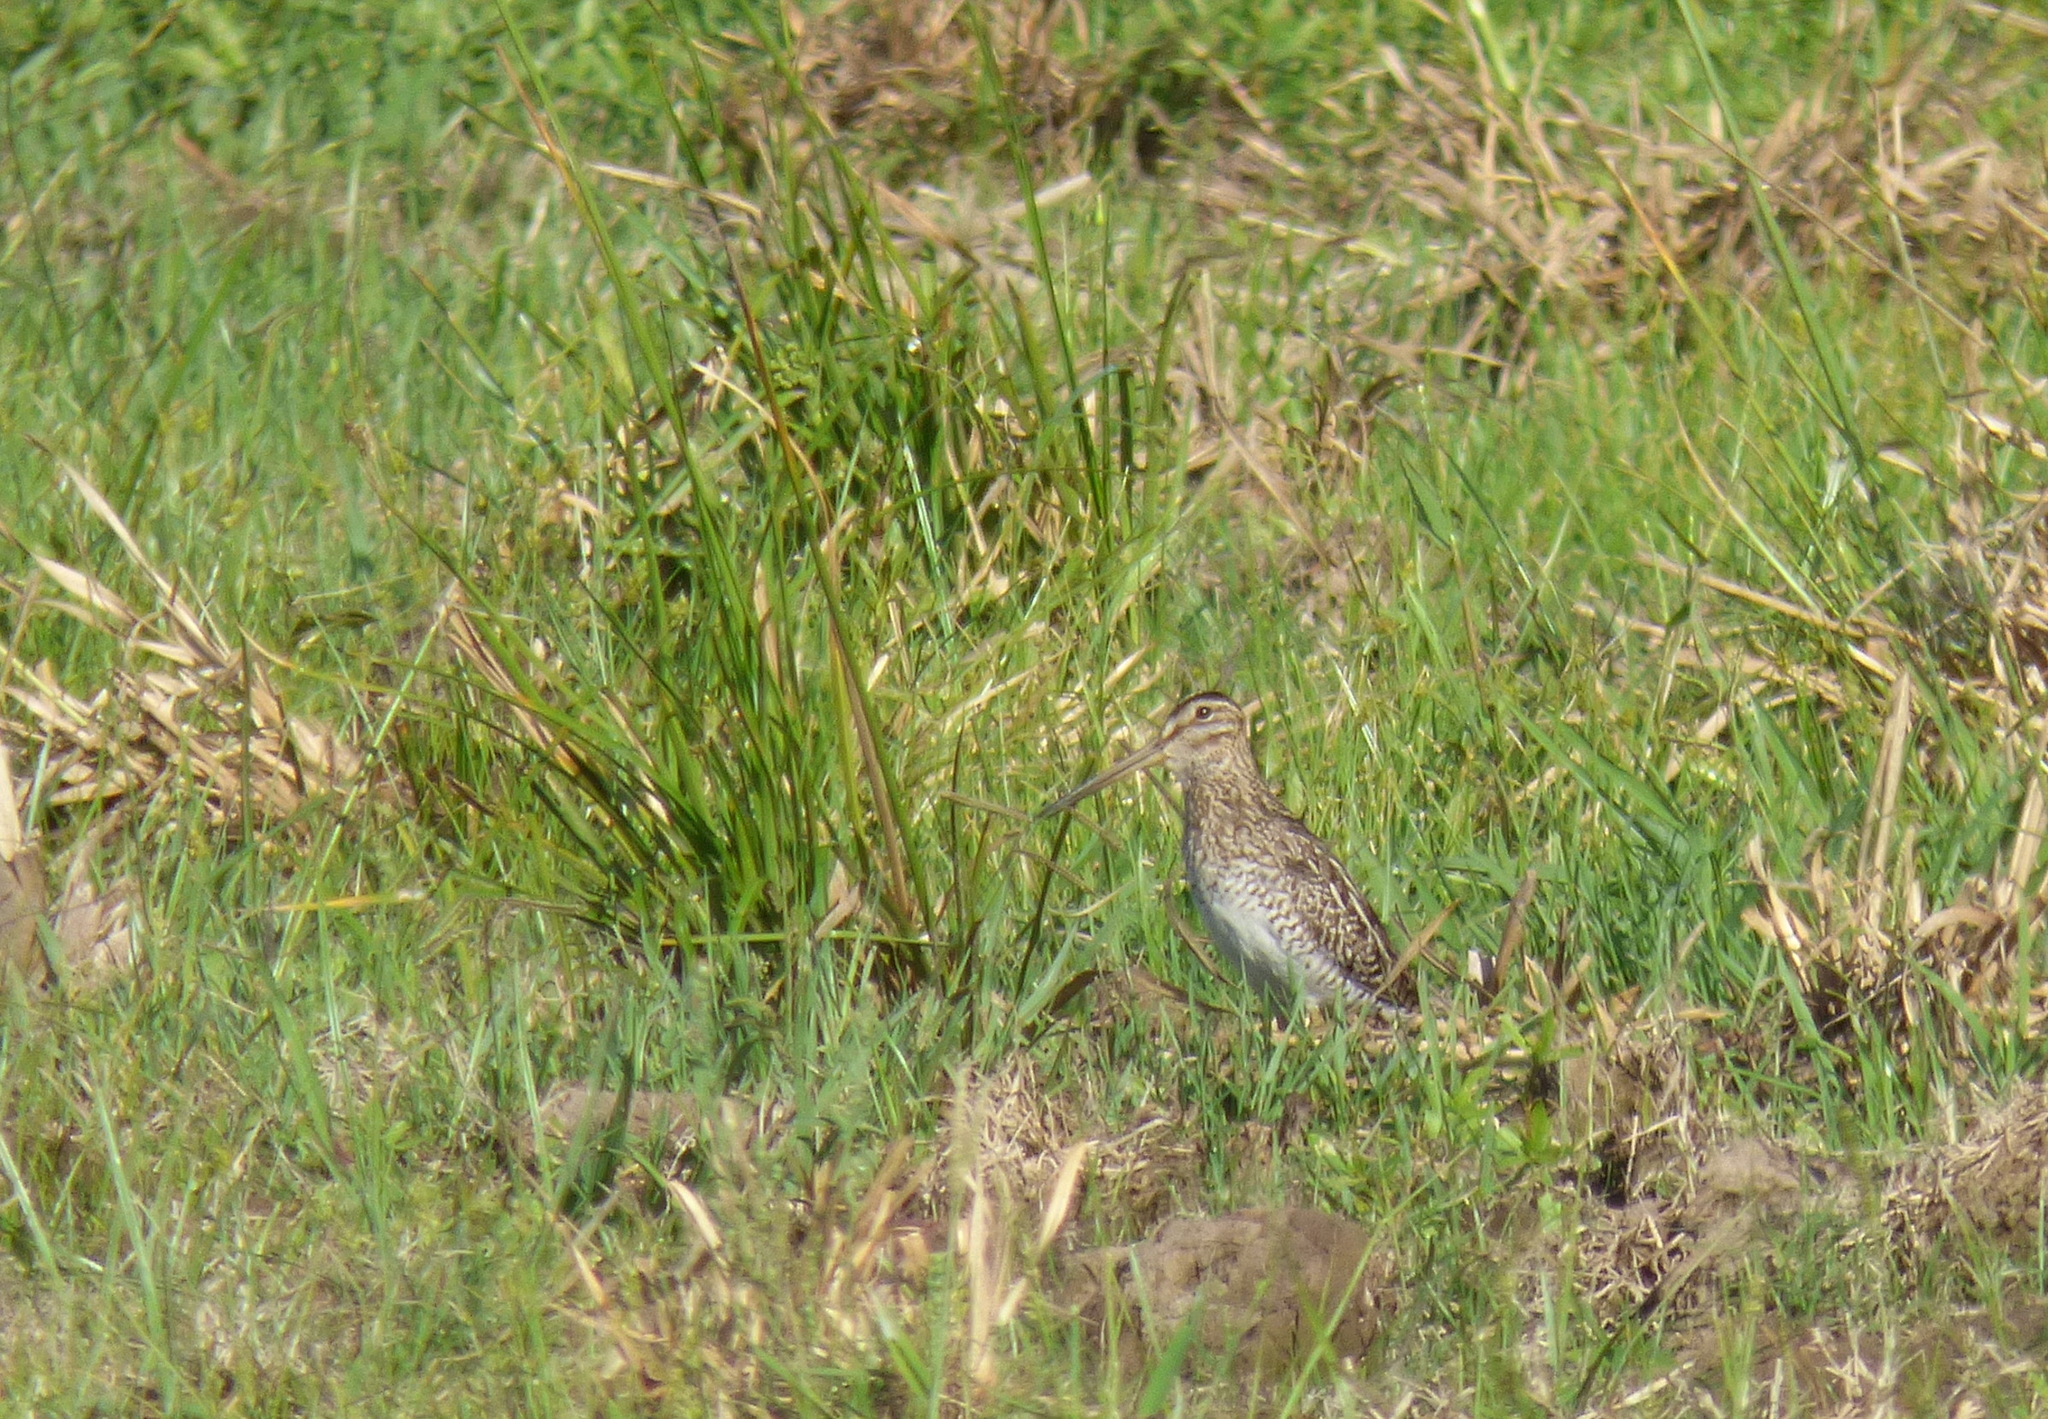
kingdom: Animalia
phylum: Chordata
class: Aves
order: Charadriiformes
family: Scolopacidae
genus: Gallinago
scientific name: Gallinago paraguaiae
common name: South american snipe
